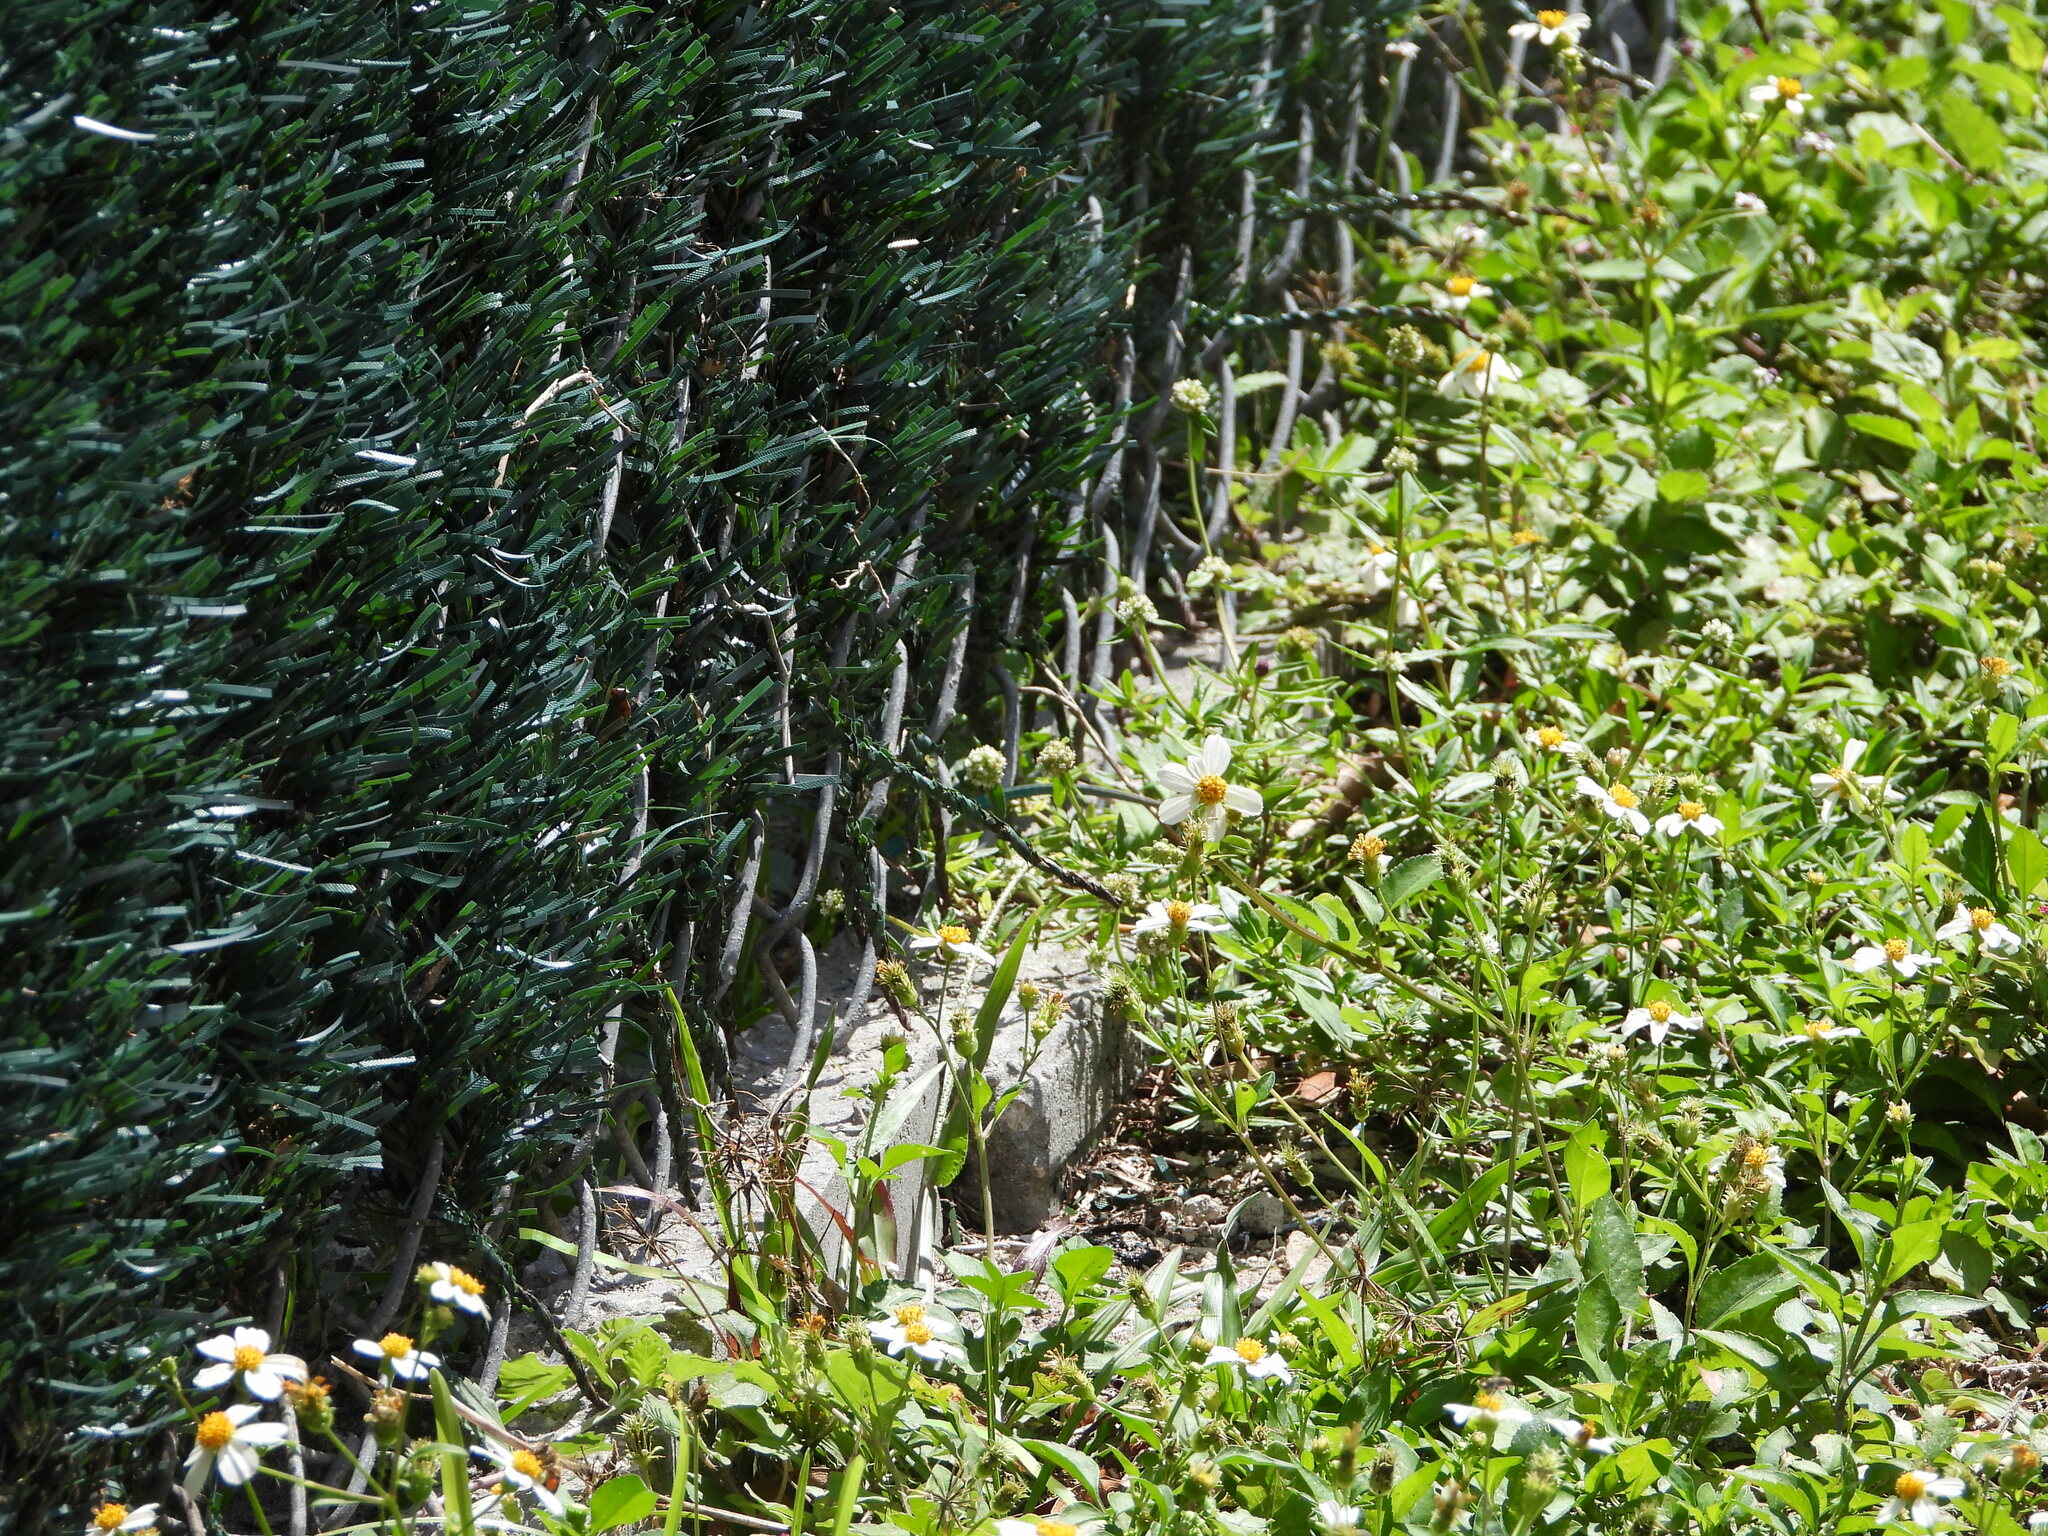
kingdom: Plantae
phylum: Tracheophyta
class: Magnoliopsida
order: Asterales
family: Asteraceae
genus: Bidens
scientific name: Bidens alba
